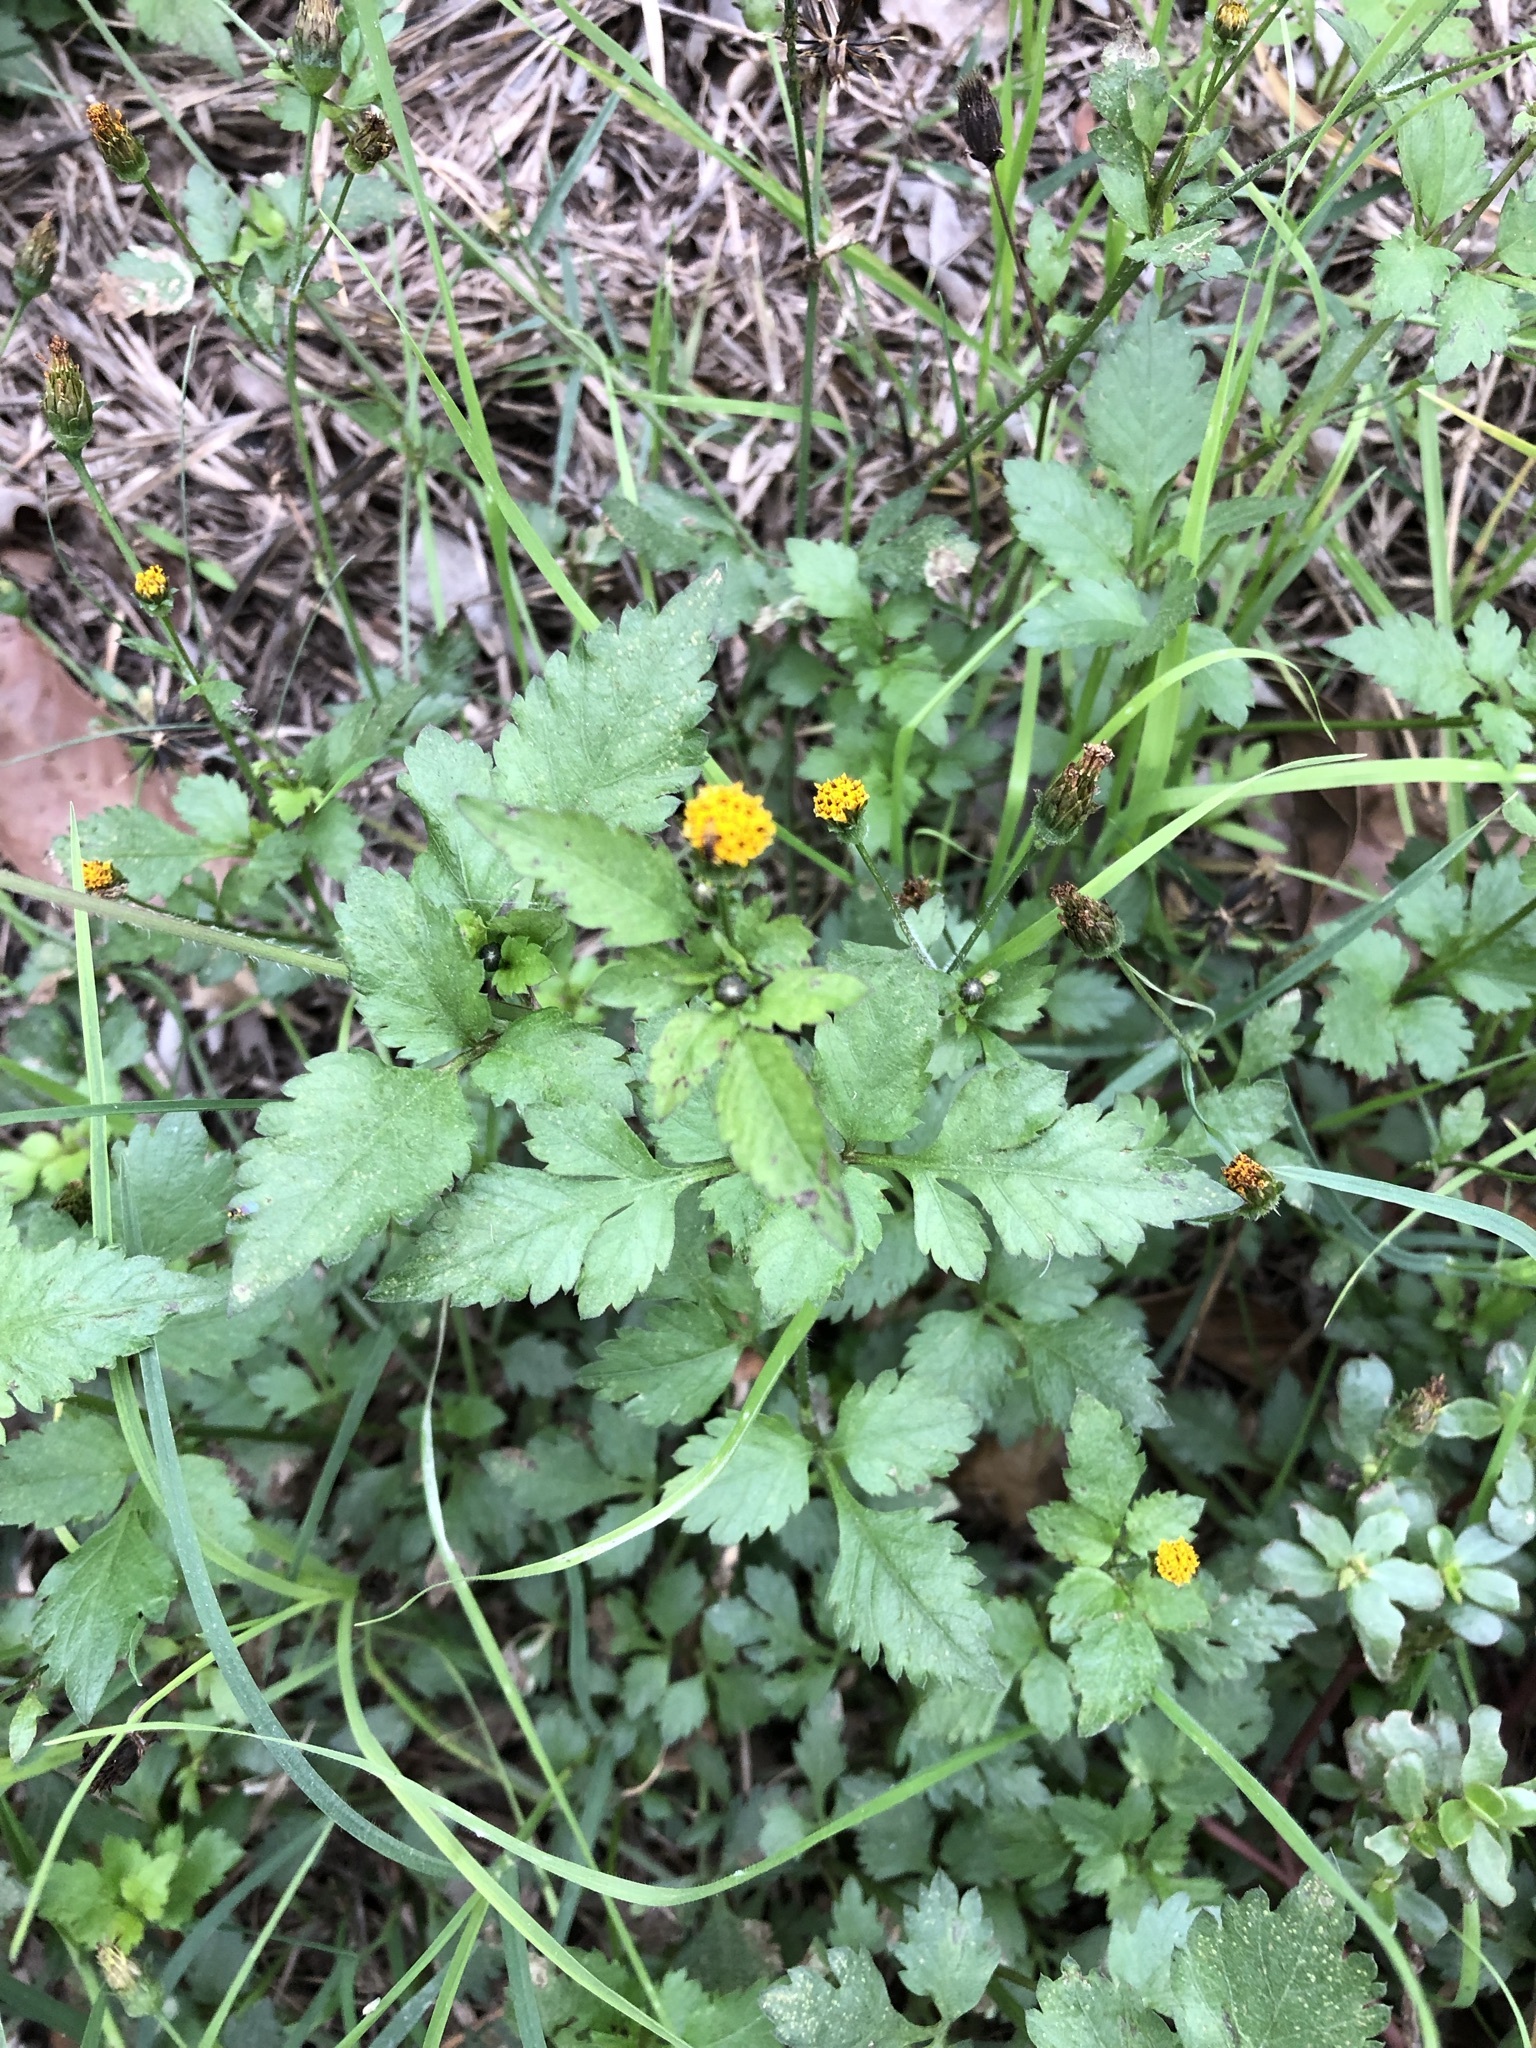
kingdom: Plantae
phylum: Tracheophyta
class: Magnoliopsida
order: Asterales
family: Asteraceae
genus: Bidens
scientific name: Bidens pilosa
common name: Black-jack
